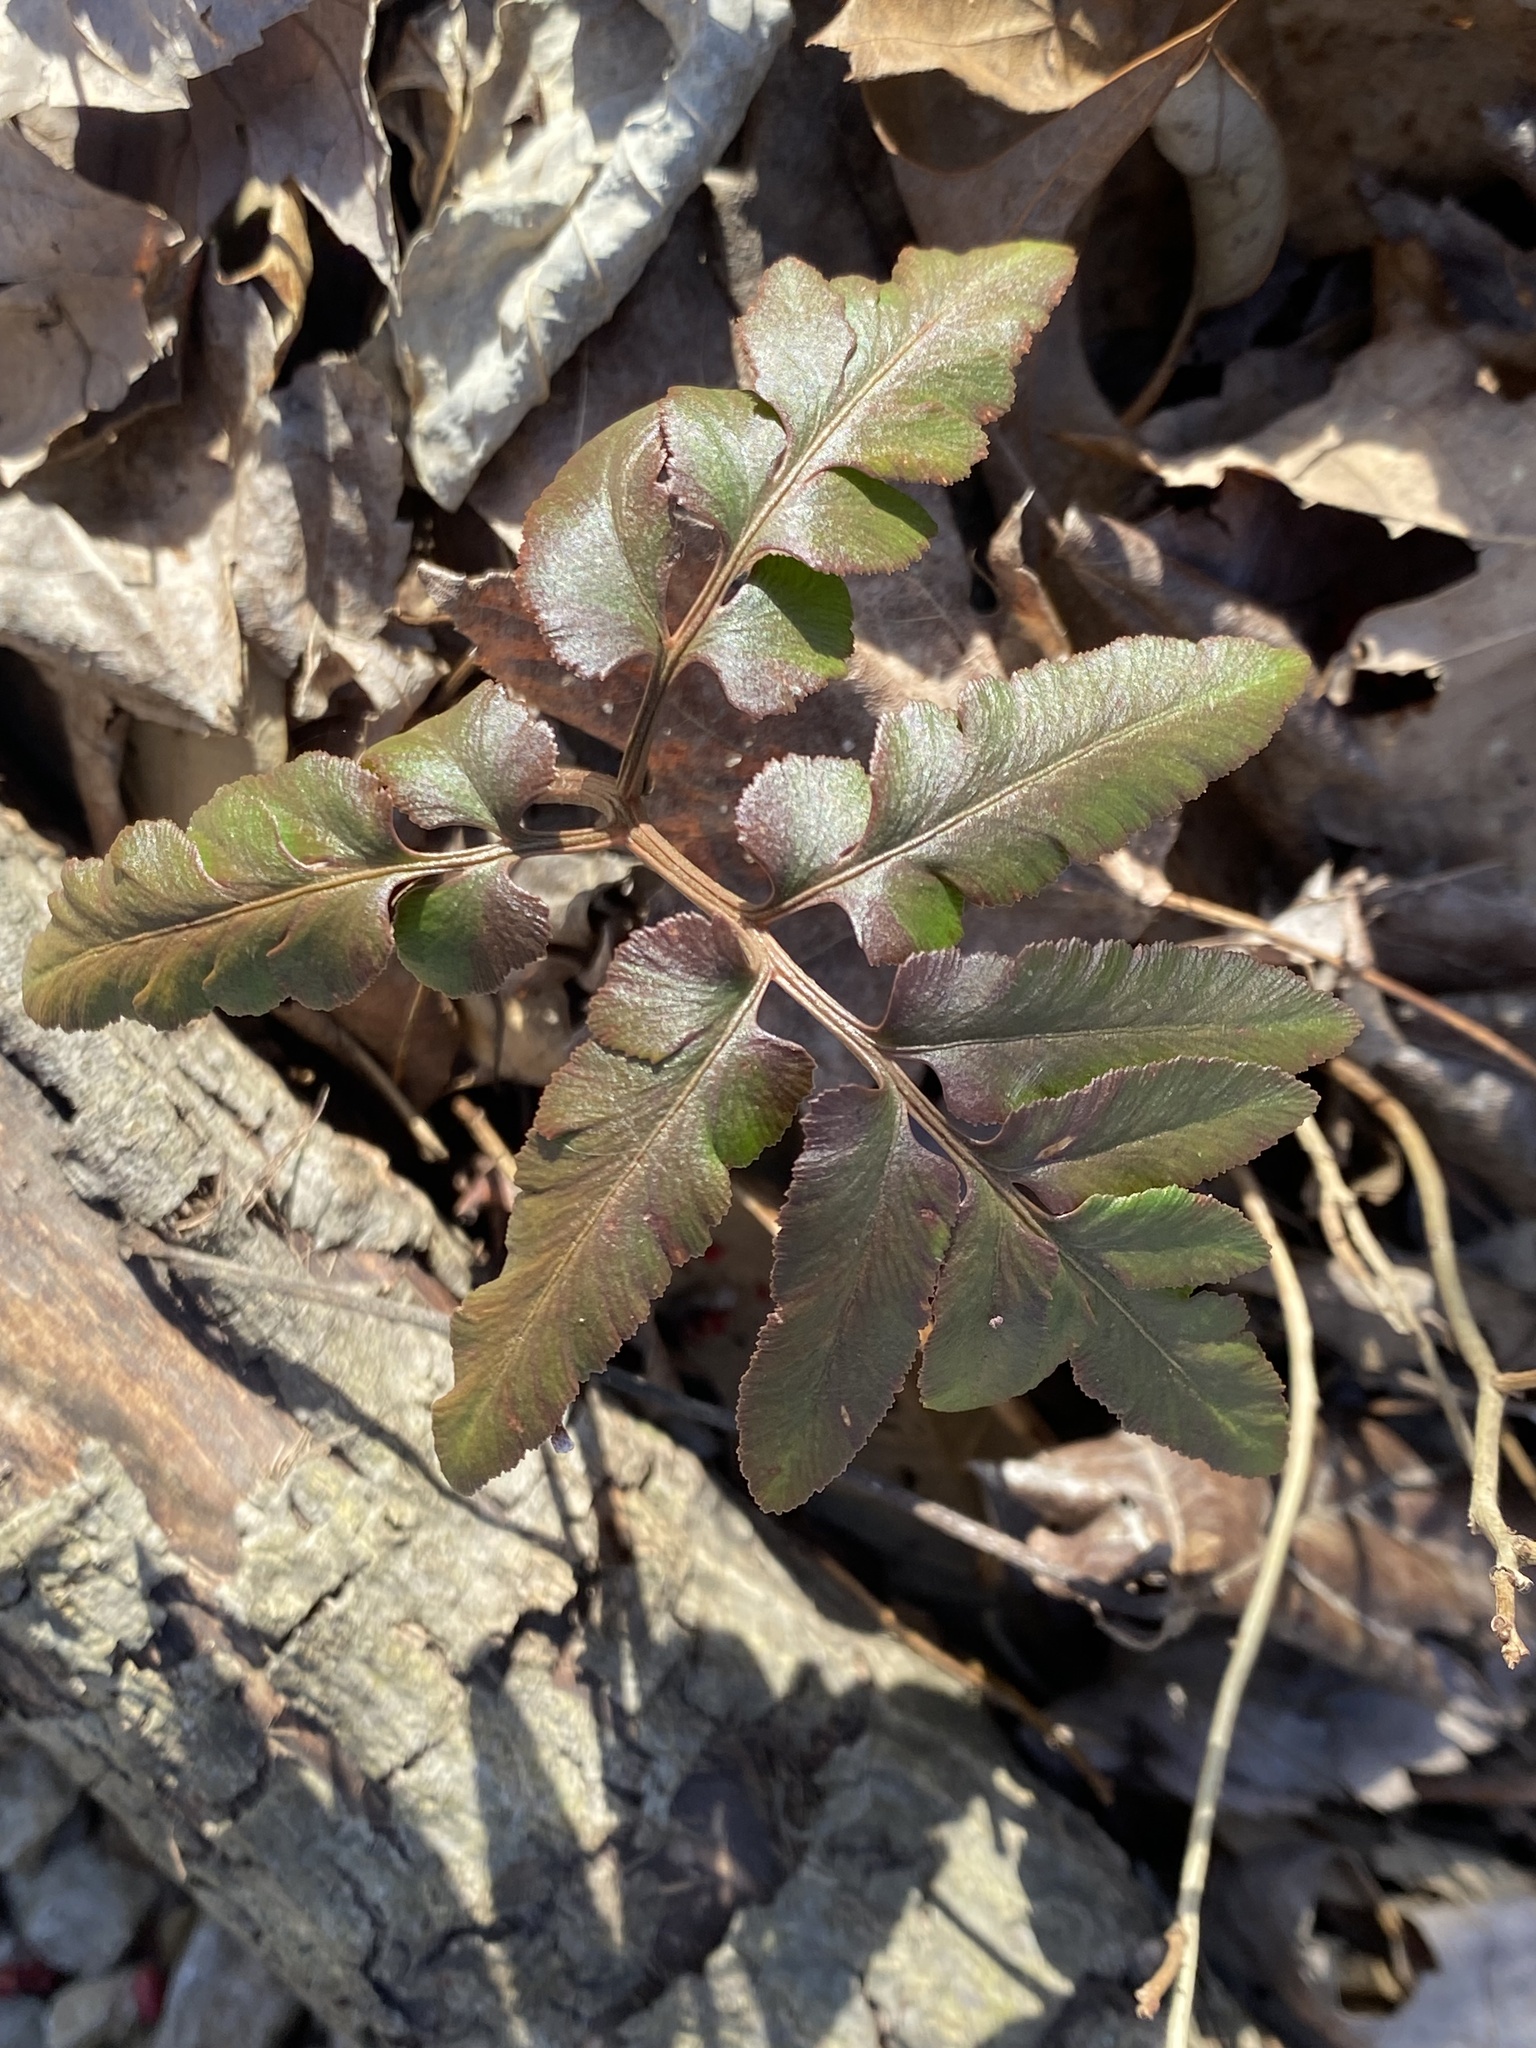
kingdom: Plantae
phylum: Tracheophyta
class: Polypodiopsida
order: Ophioglossales
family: Ophioglossaceae
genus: Sceptridium
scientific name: Sceptridium dissectum
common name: Cut-leaved grapefern
